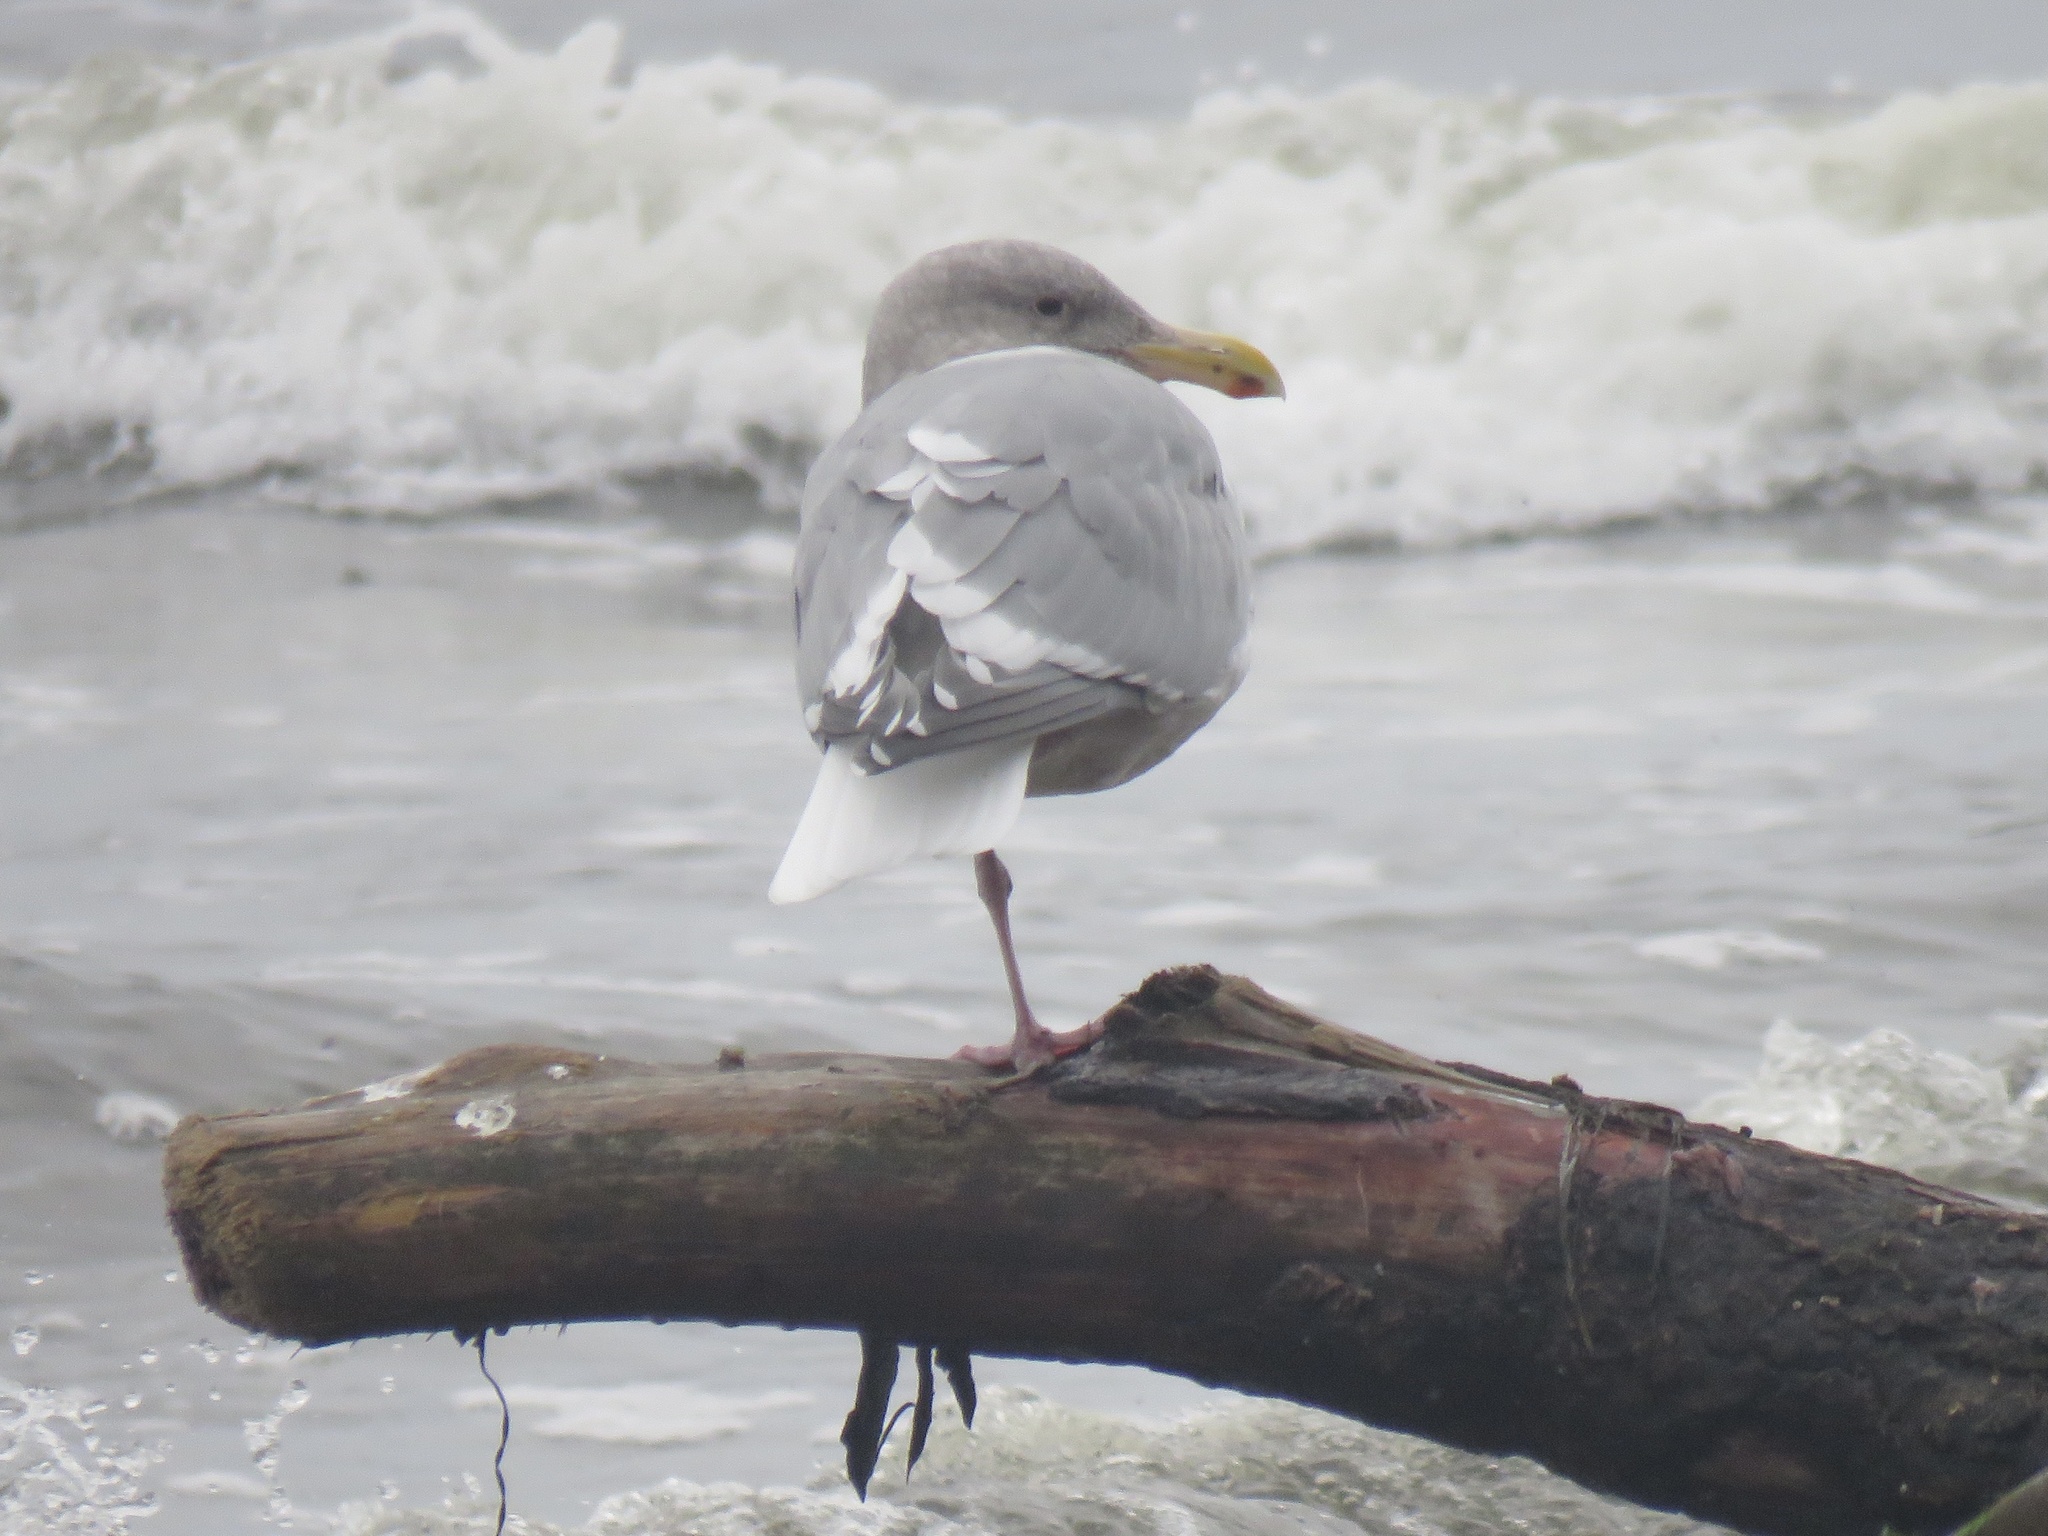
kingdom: Animalia
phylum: Chordata
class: Aves
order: Charadriiformes
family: Laridae
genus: Larus
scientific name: Larus
